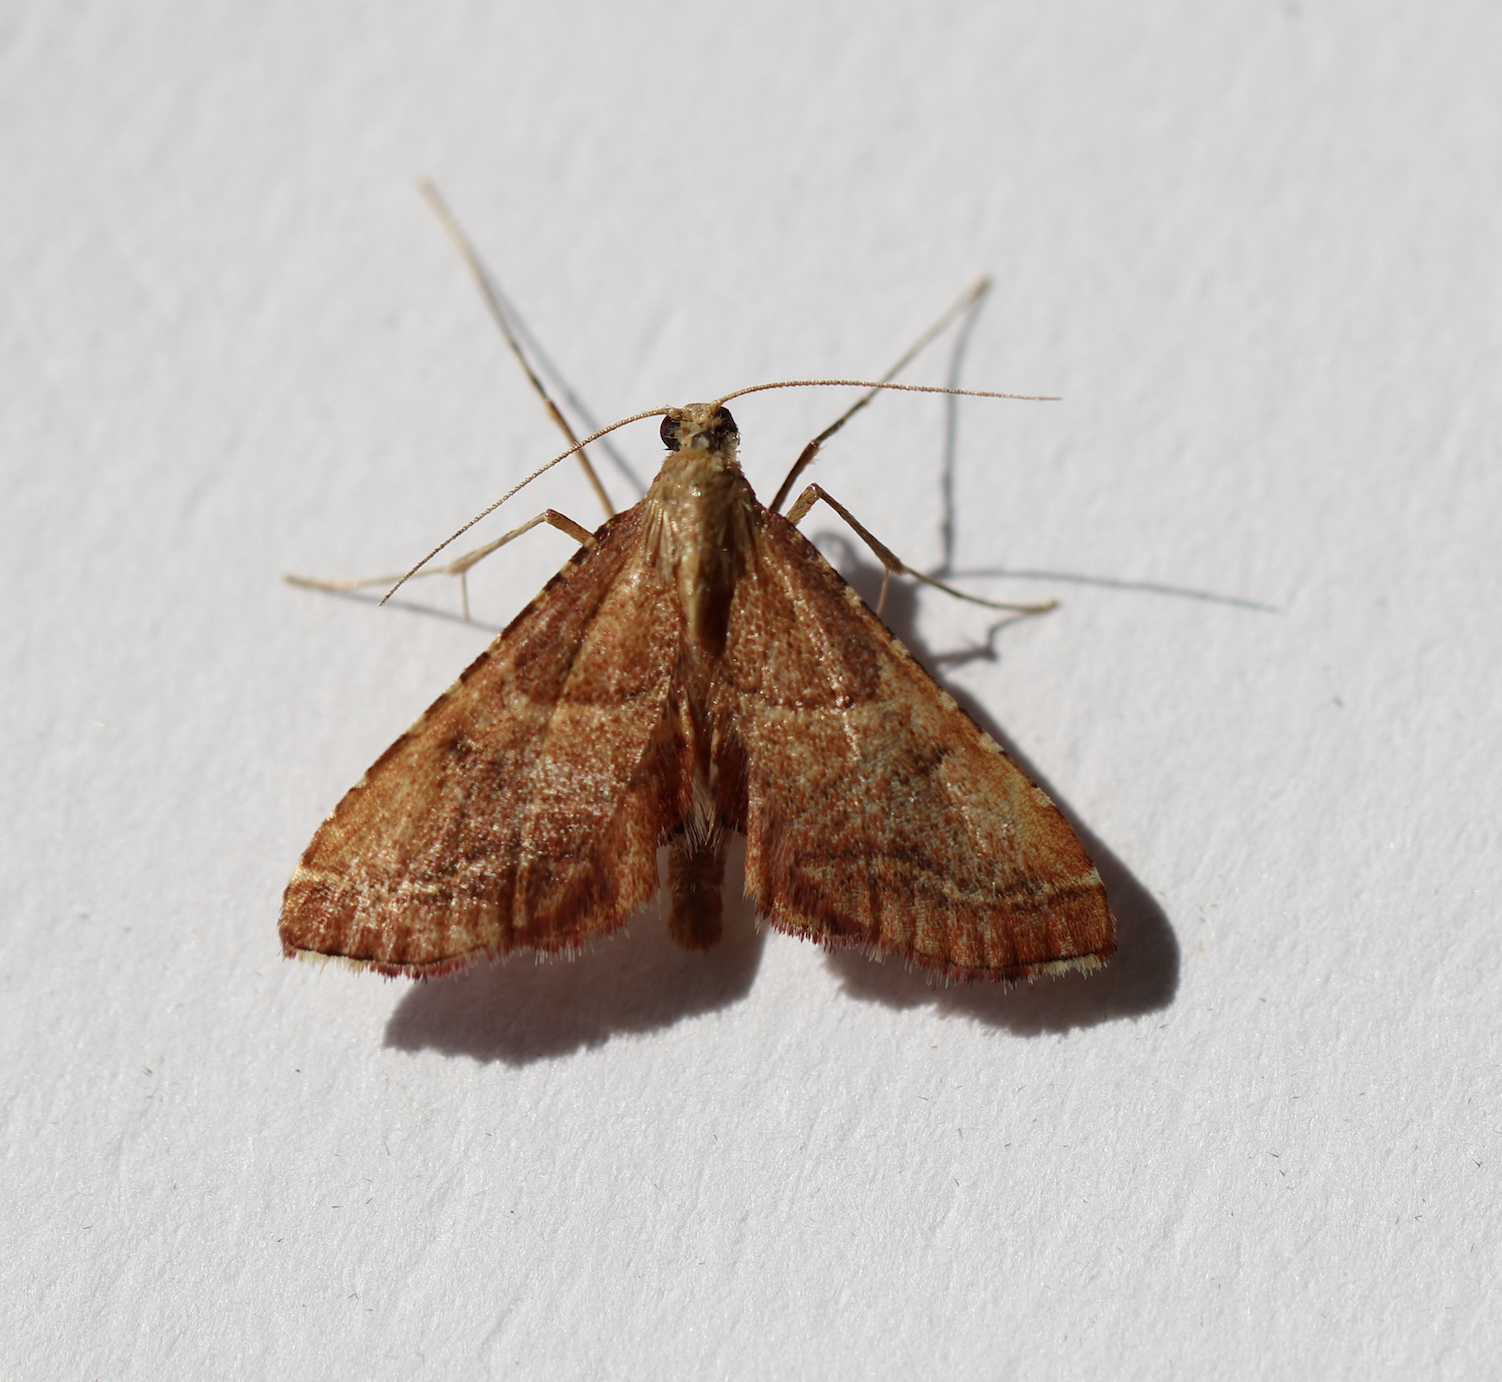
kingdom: Animalia
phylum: Arthropoda
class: Insecta
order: Lepidoptera
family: Pyralidae
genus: Endotricha
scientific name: Endotricha flammealis
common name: Rosy tabby
